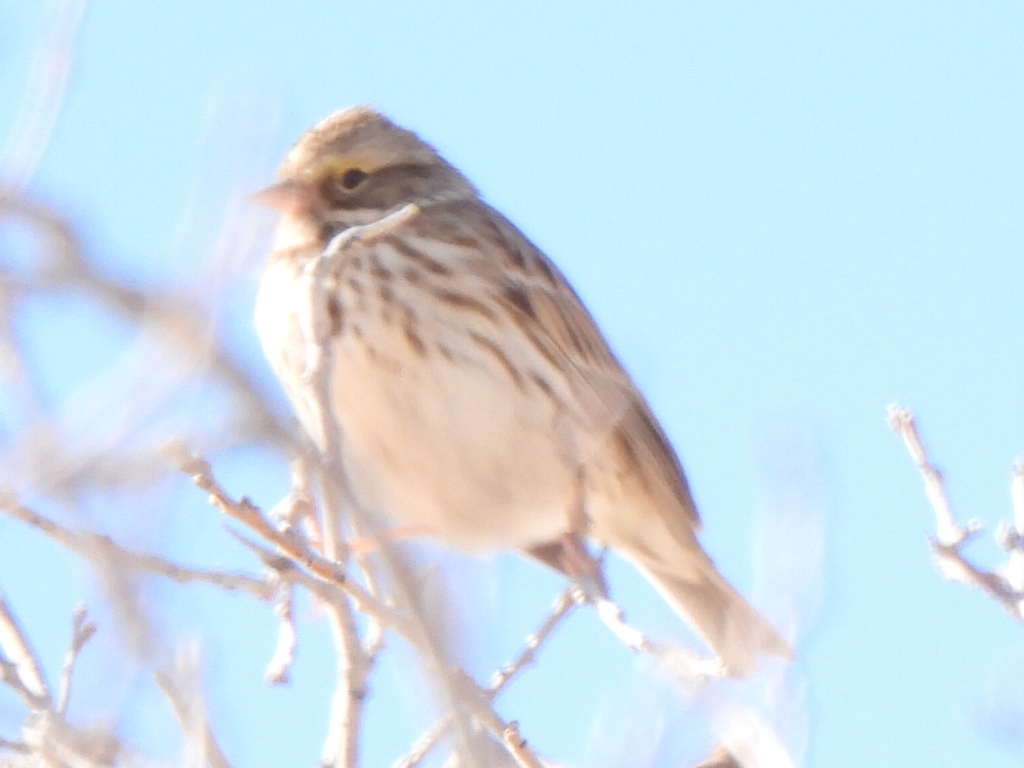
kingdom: Animalia
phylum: Chordata
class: Aves
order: Passeriformes
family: Passerellidae
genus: Passerculus
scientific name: Passerculus sandwichensis
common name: Savannah sparrow
